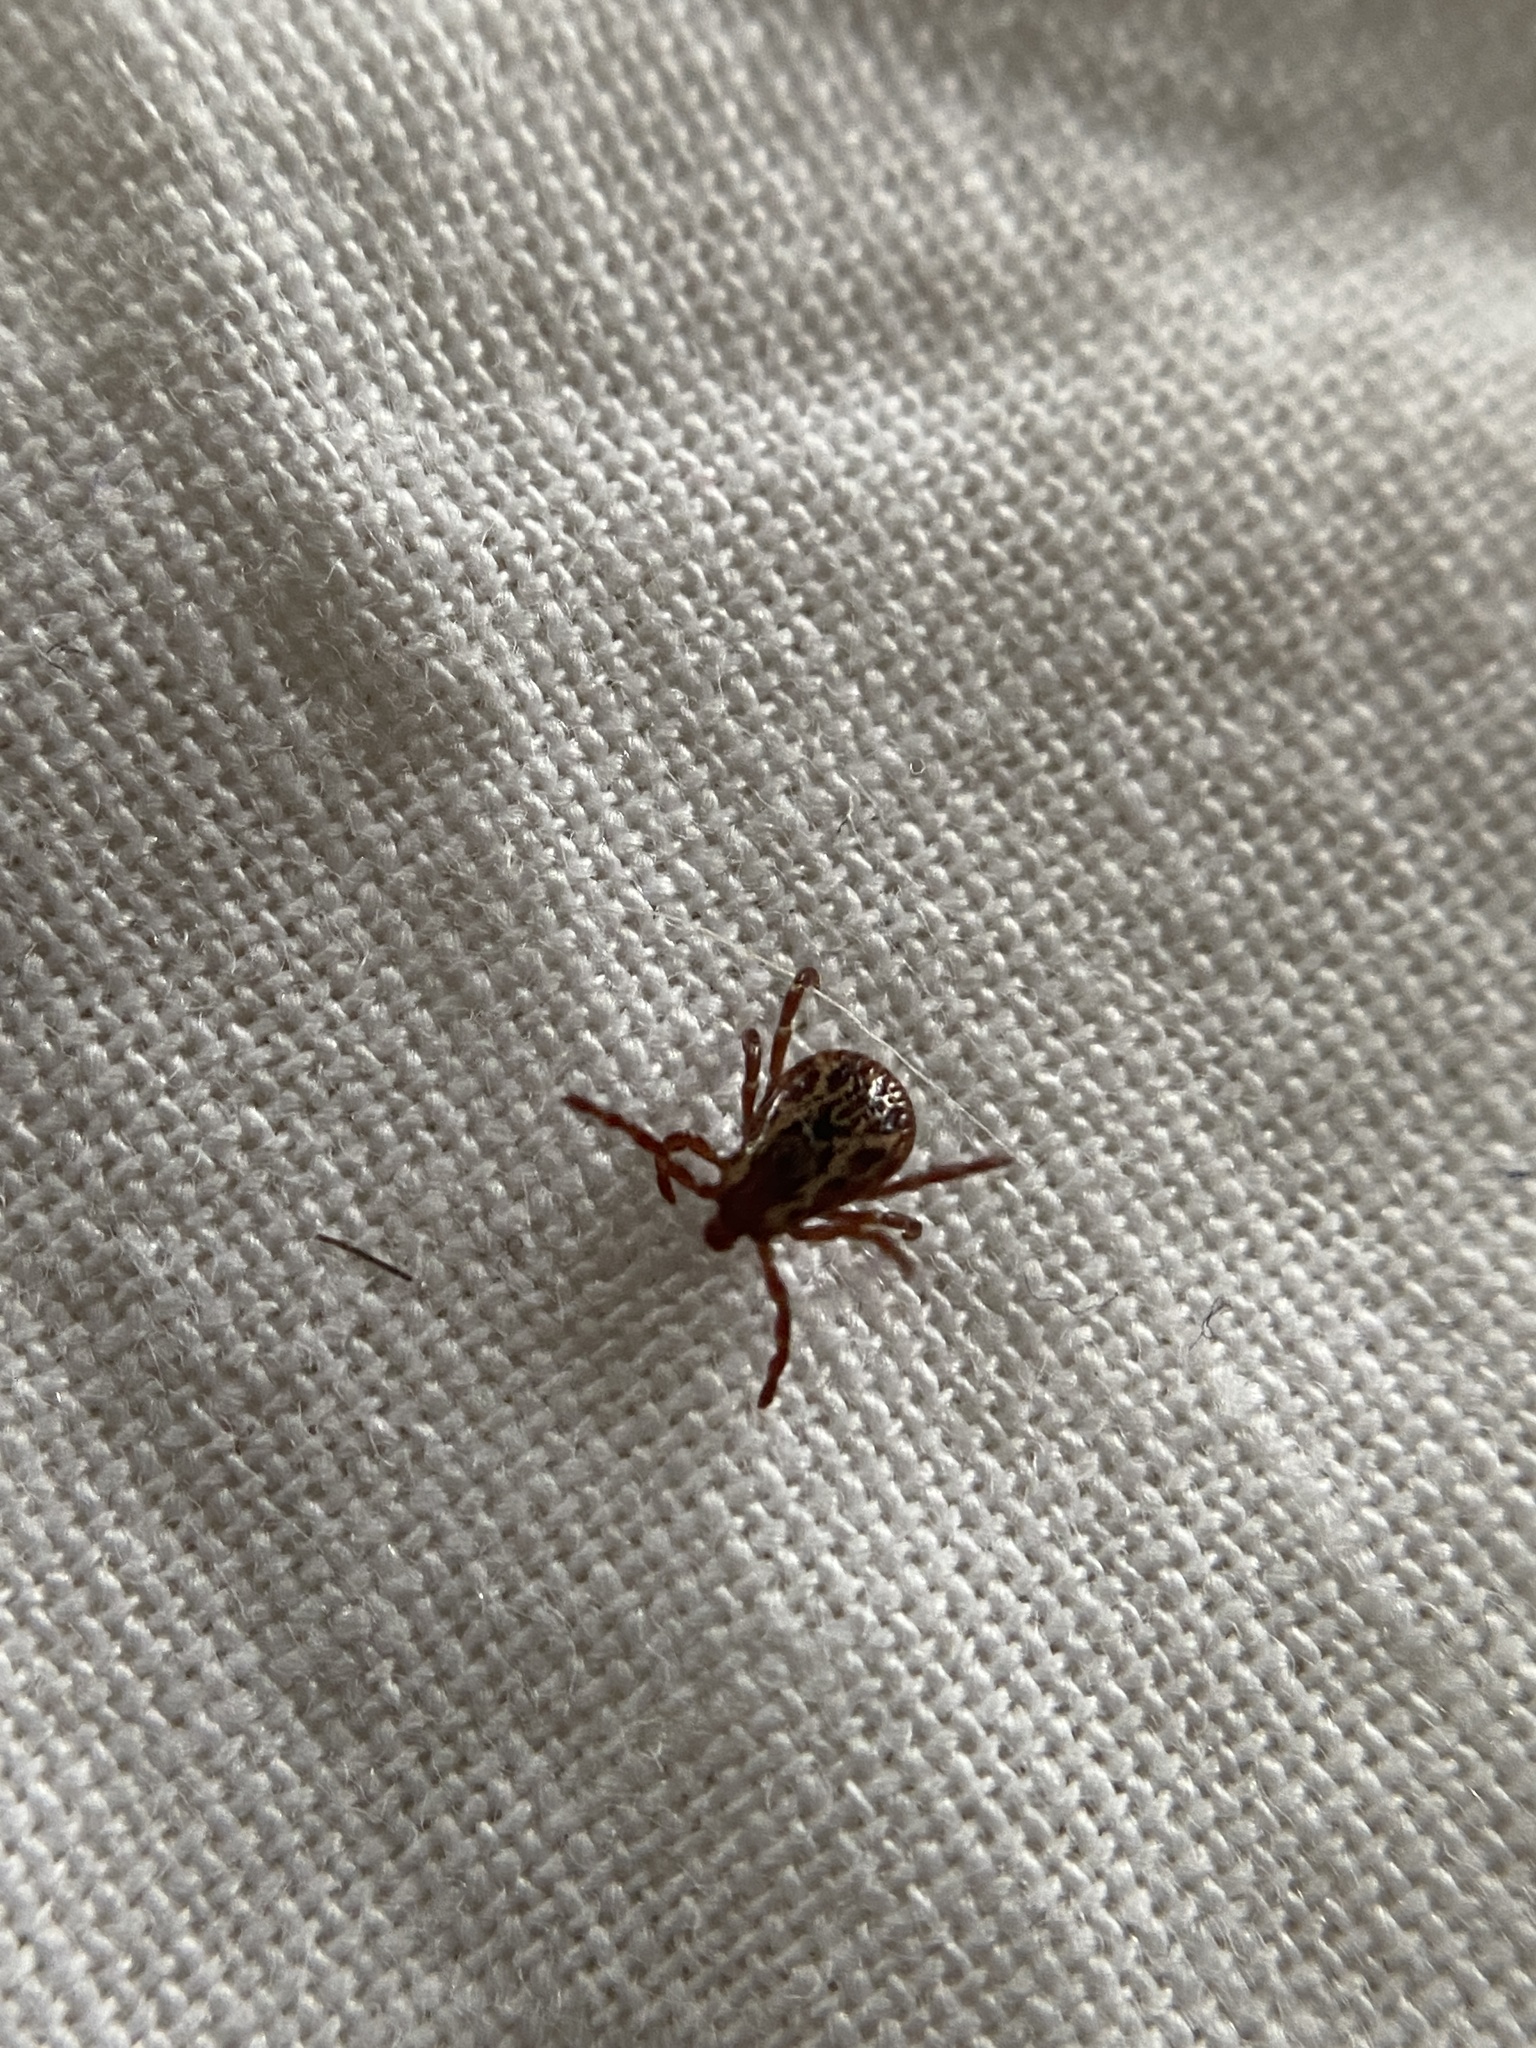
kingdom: Animalia
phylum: Arthropoda
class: Arachnida
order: Ixodida
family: Ixodidae
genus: Dermacentor
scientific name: Dermacentor variabilis
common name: American dog tick
